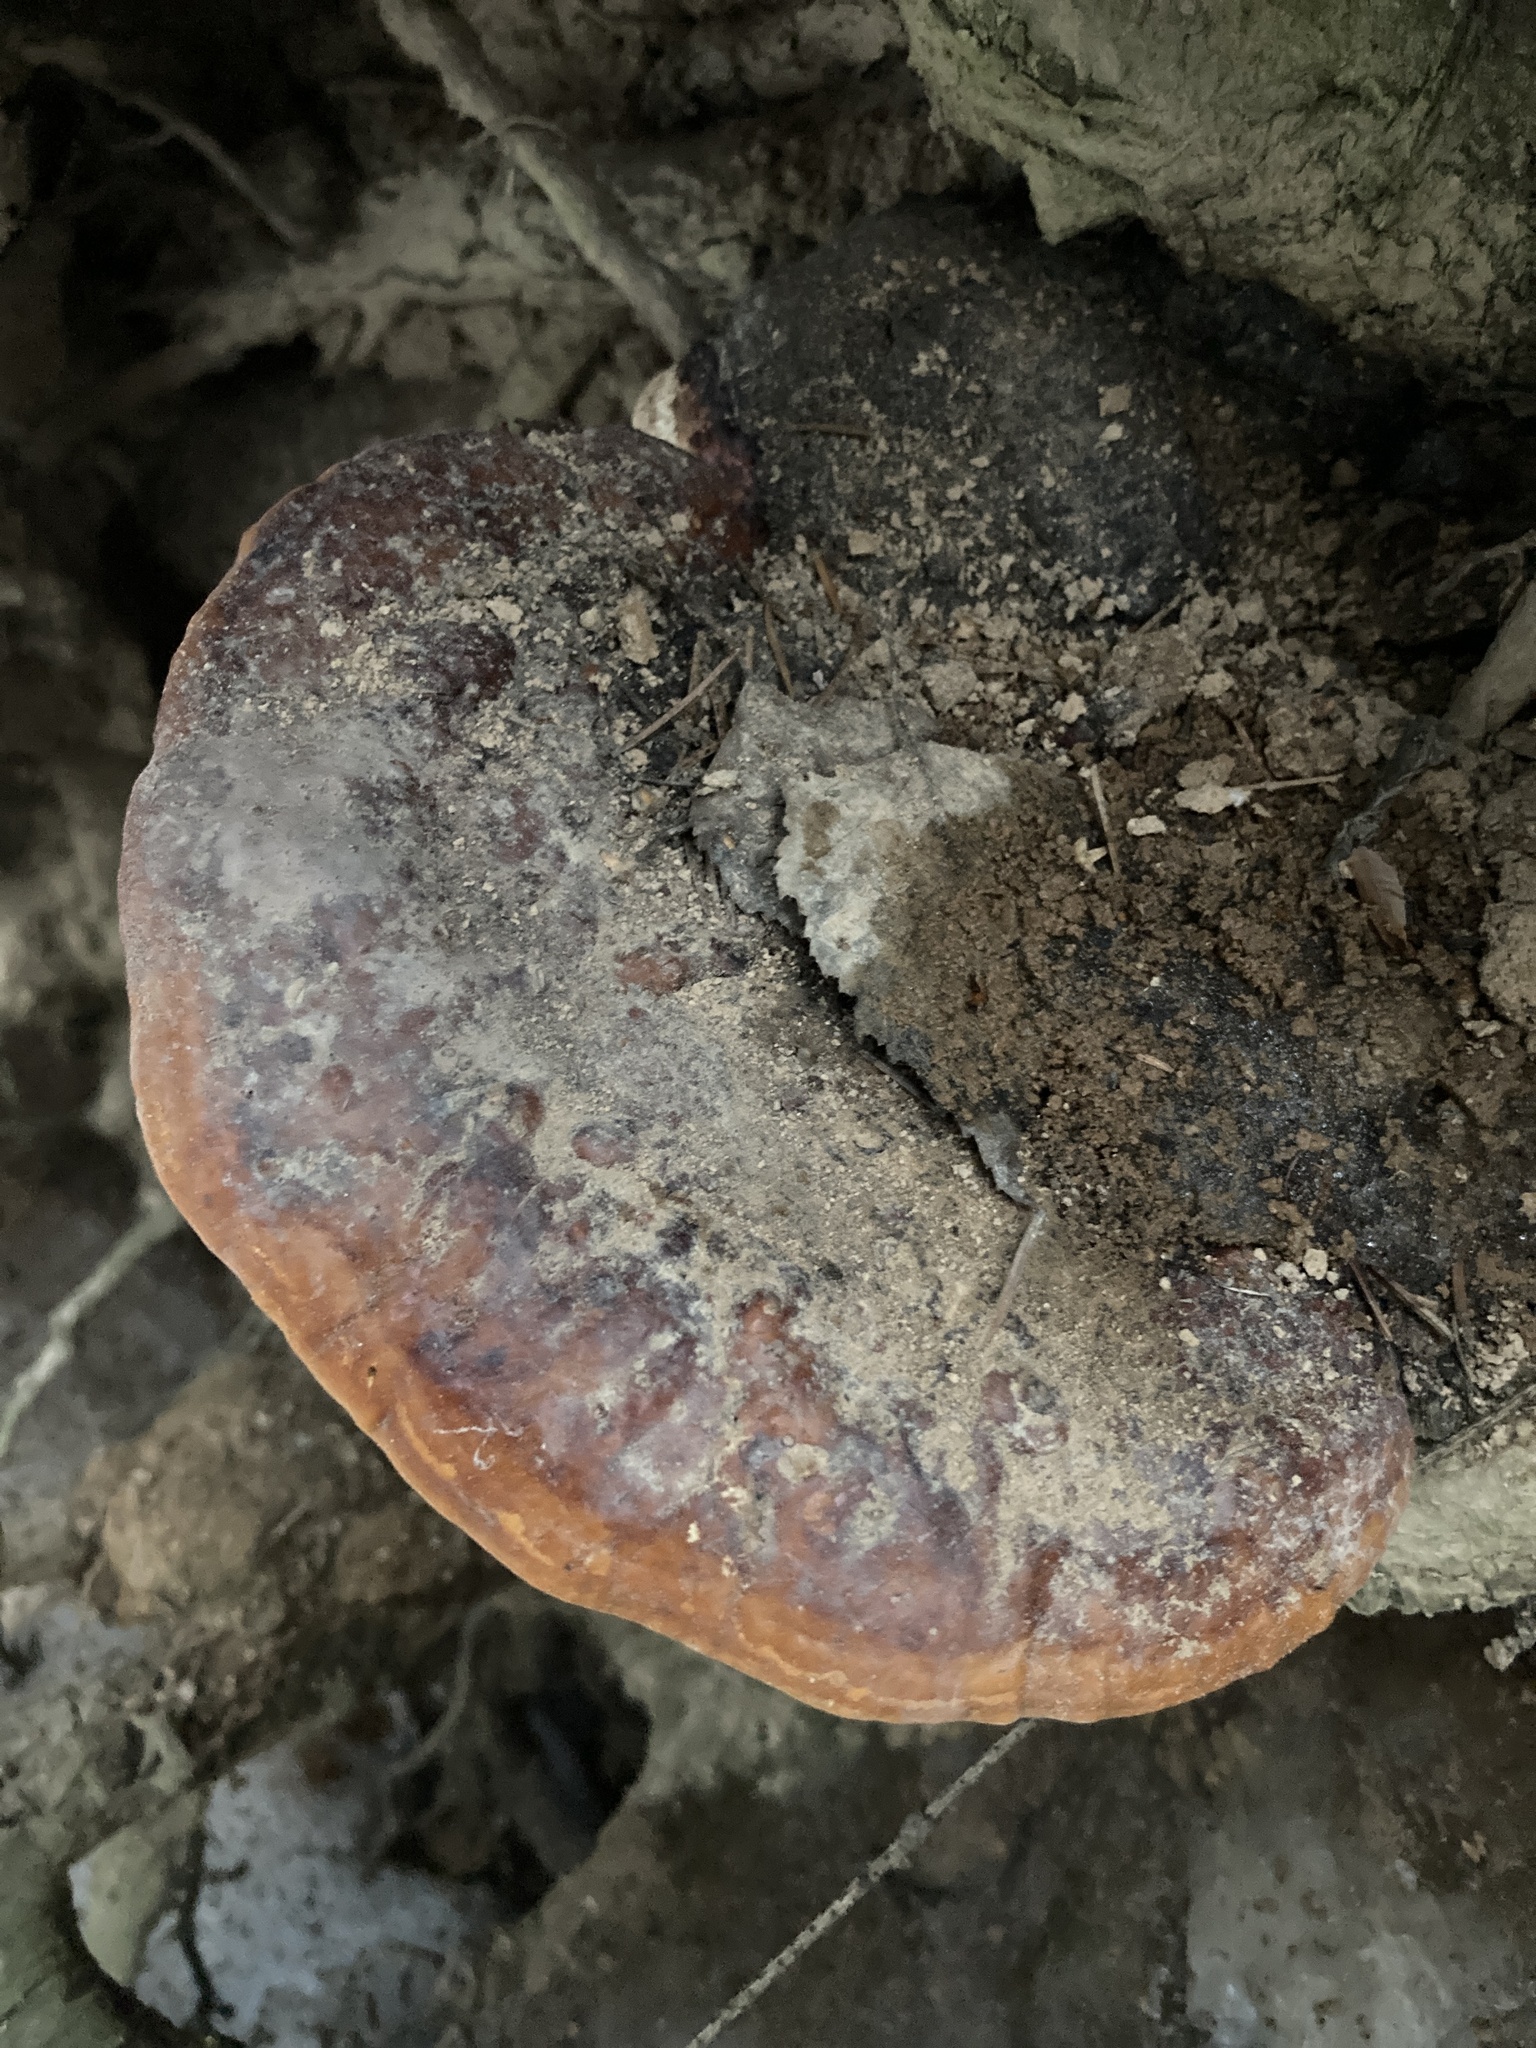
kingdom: Fungi
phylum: Basidiomycota
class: Agaricomycetes
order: Polyporales
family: Fomitopsidaceae
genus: Fomitopsis
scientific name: Fomitopsis pinicola
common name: Red-belted bracket
